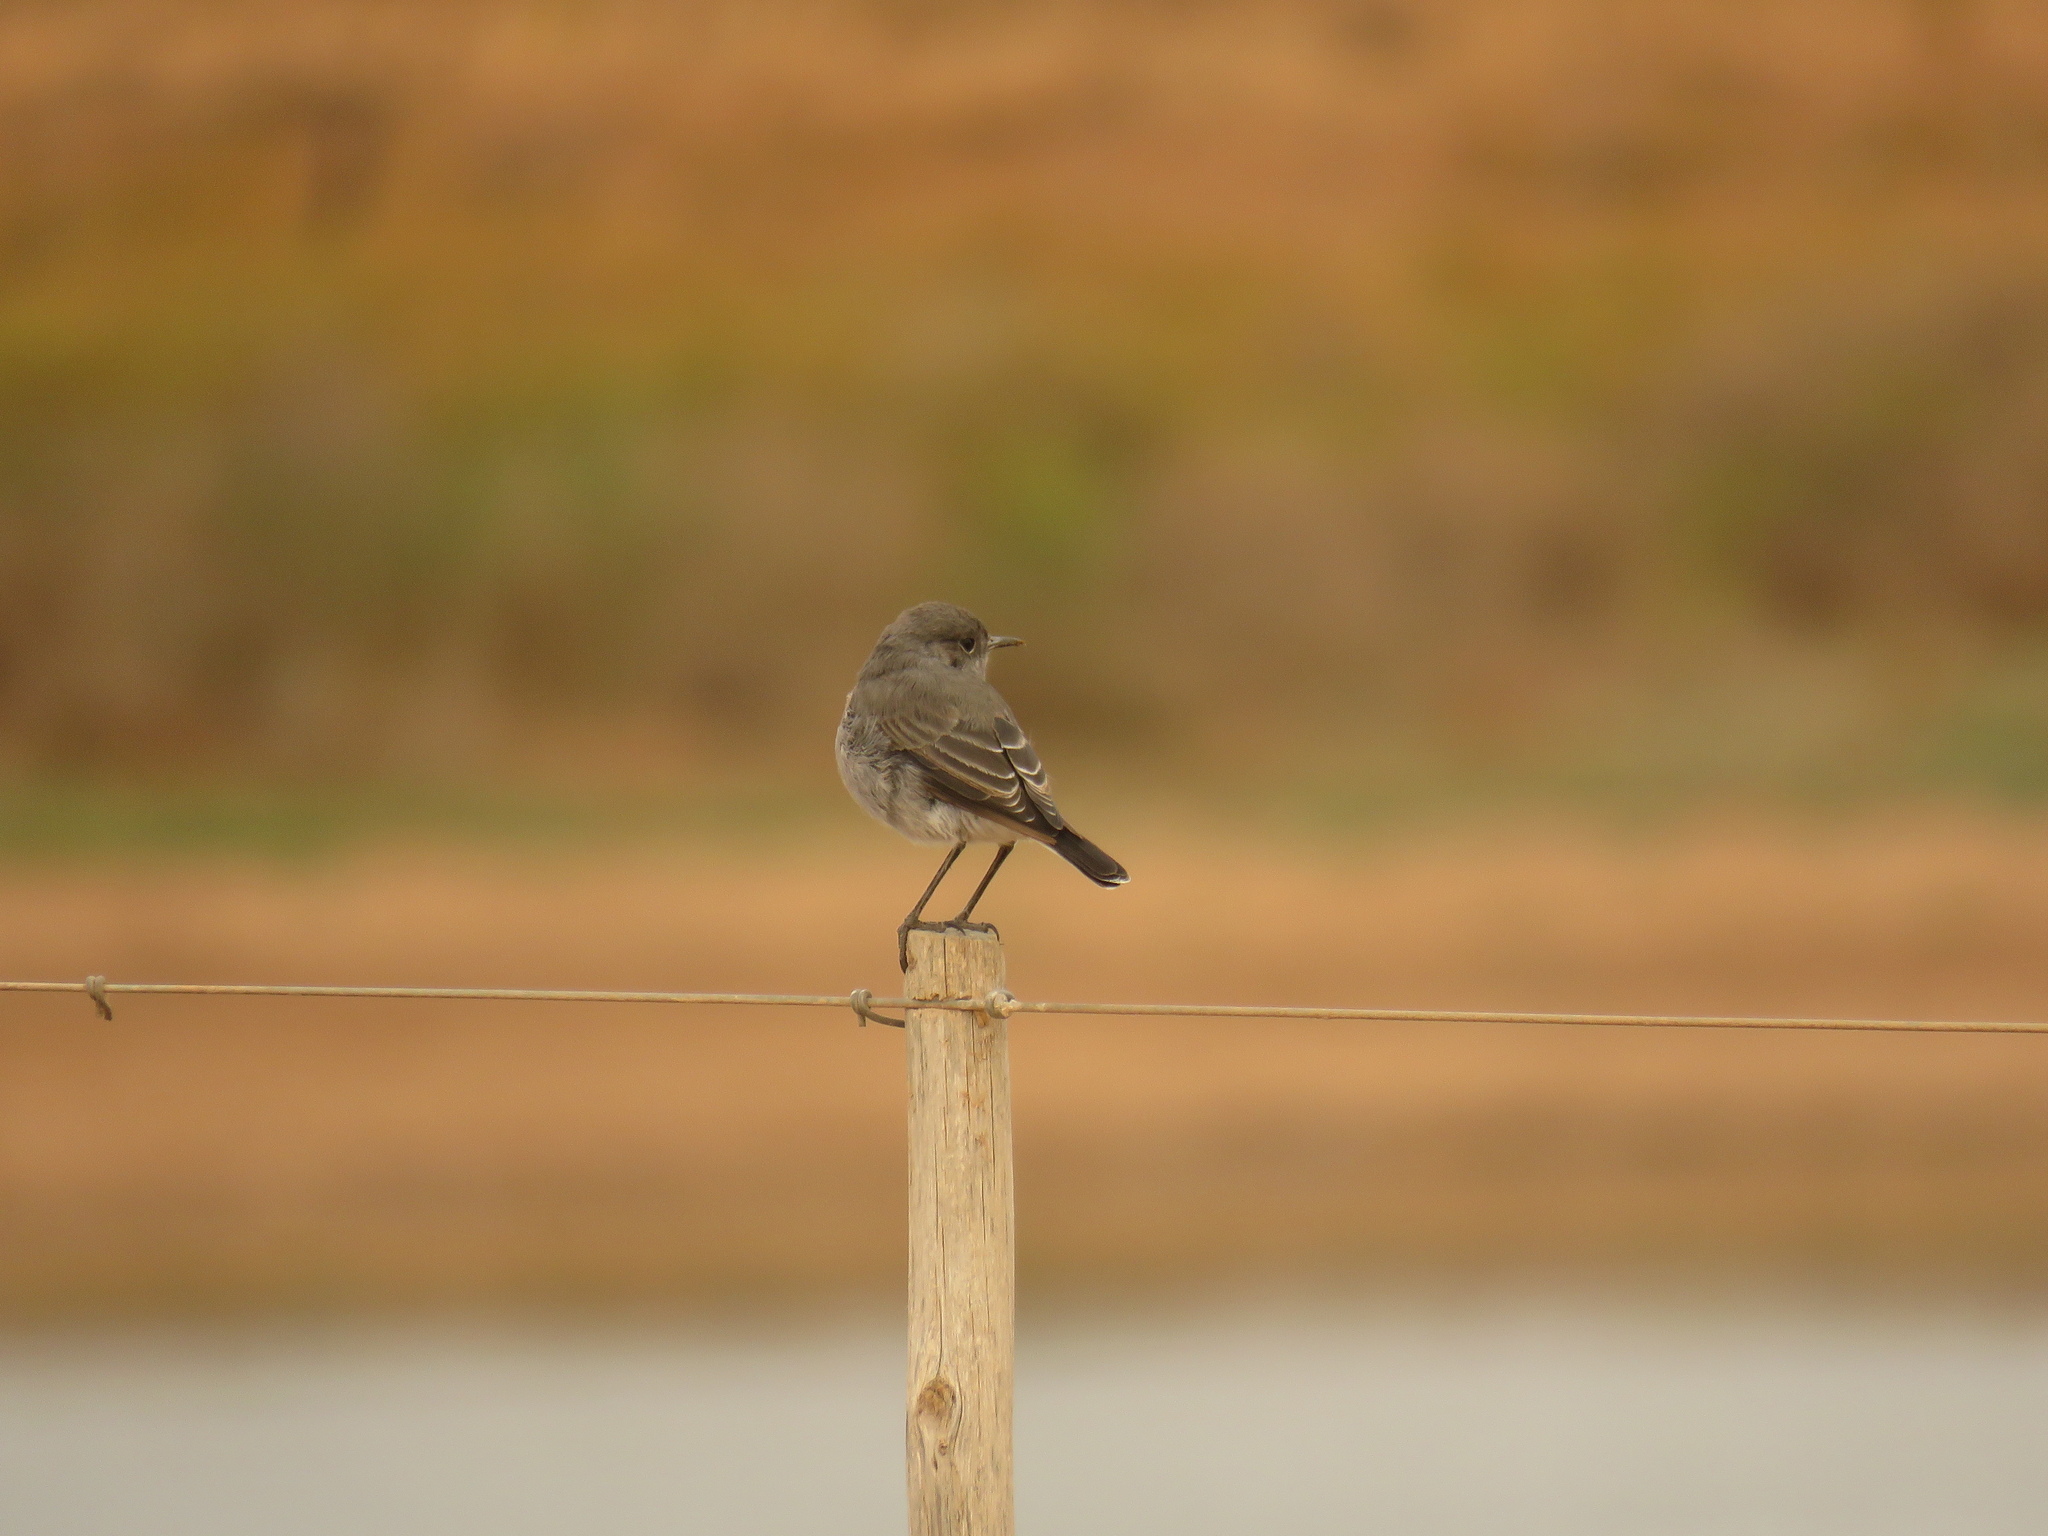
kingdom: Animalia
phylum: Chordata
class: Aves
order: Passeriformes
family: Muscicapidae
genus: Emarginata
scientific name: Emarginata schlegelii
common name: Karoo chat
